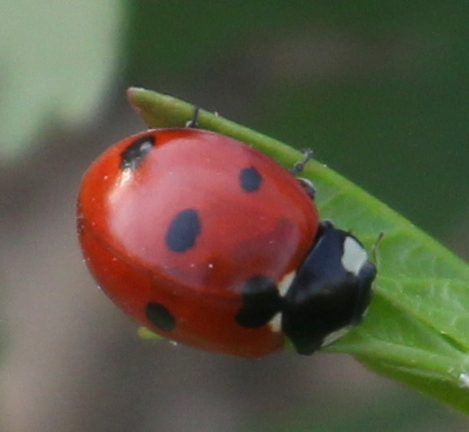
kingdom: Animalia
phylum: Arthropoda
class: Insecta
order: Coleoptera
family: Coccinellidae
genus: Coccinella
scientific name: Coccinella septempunctata
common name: Sevenspotted lady beetle
